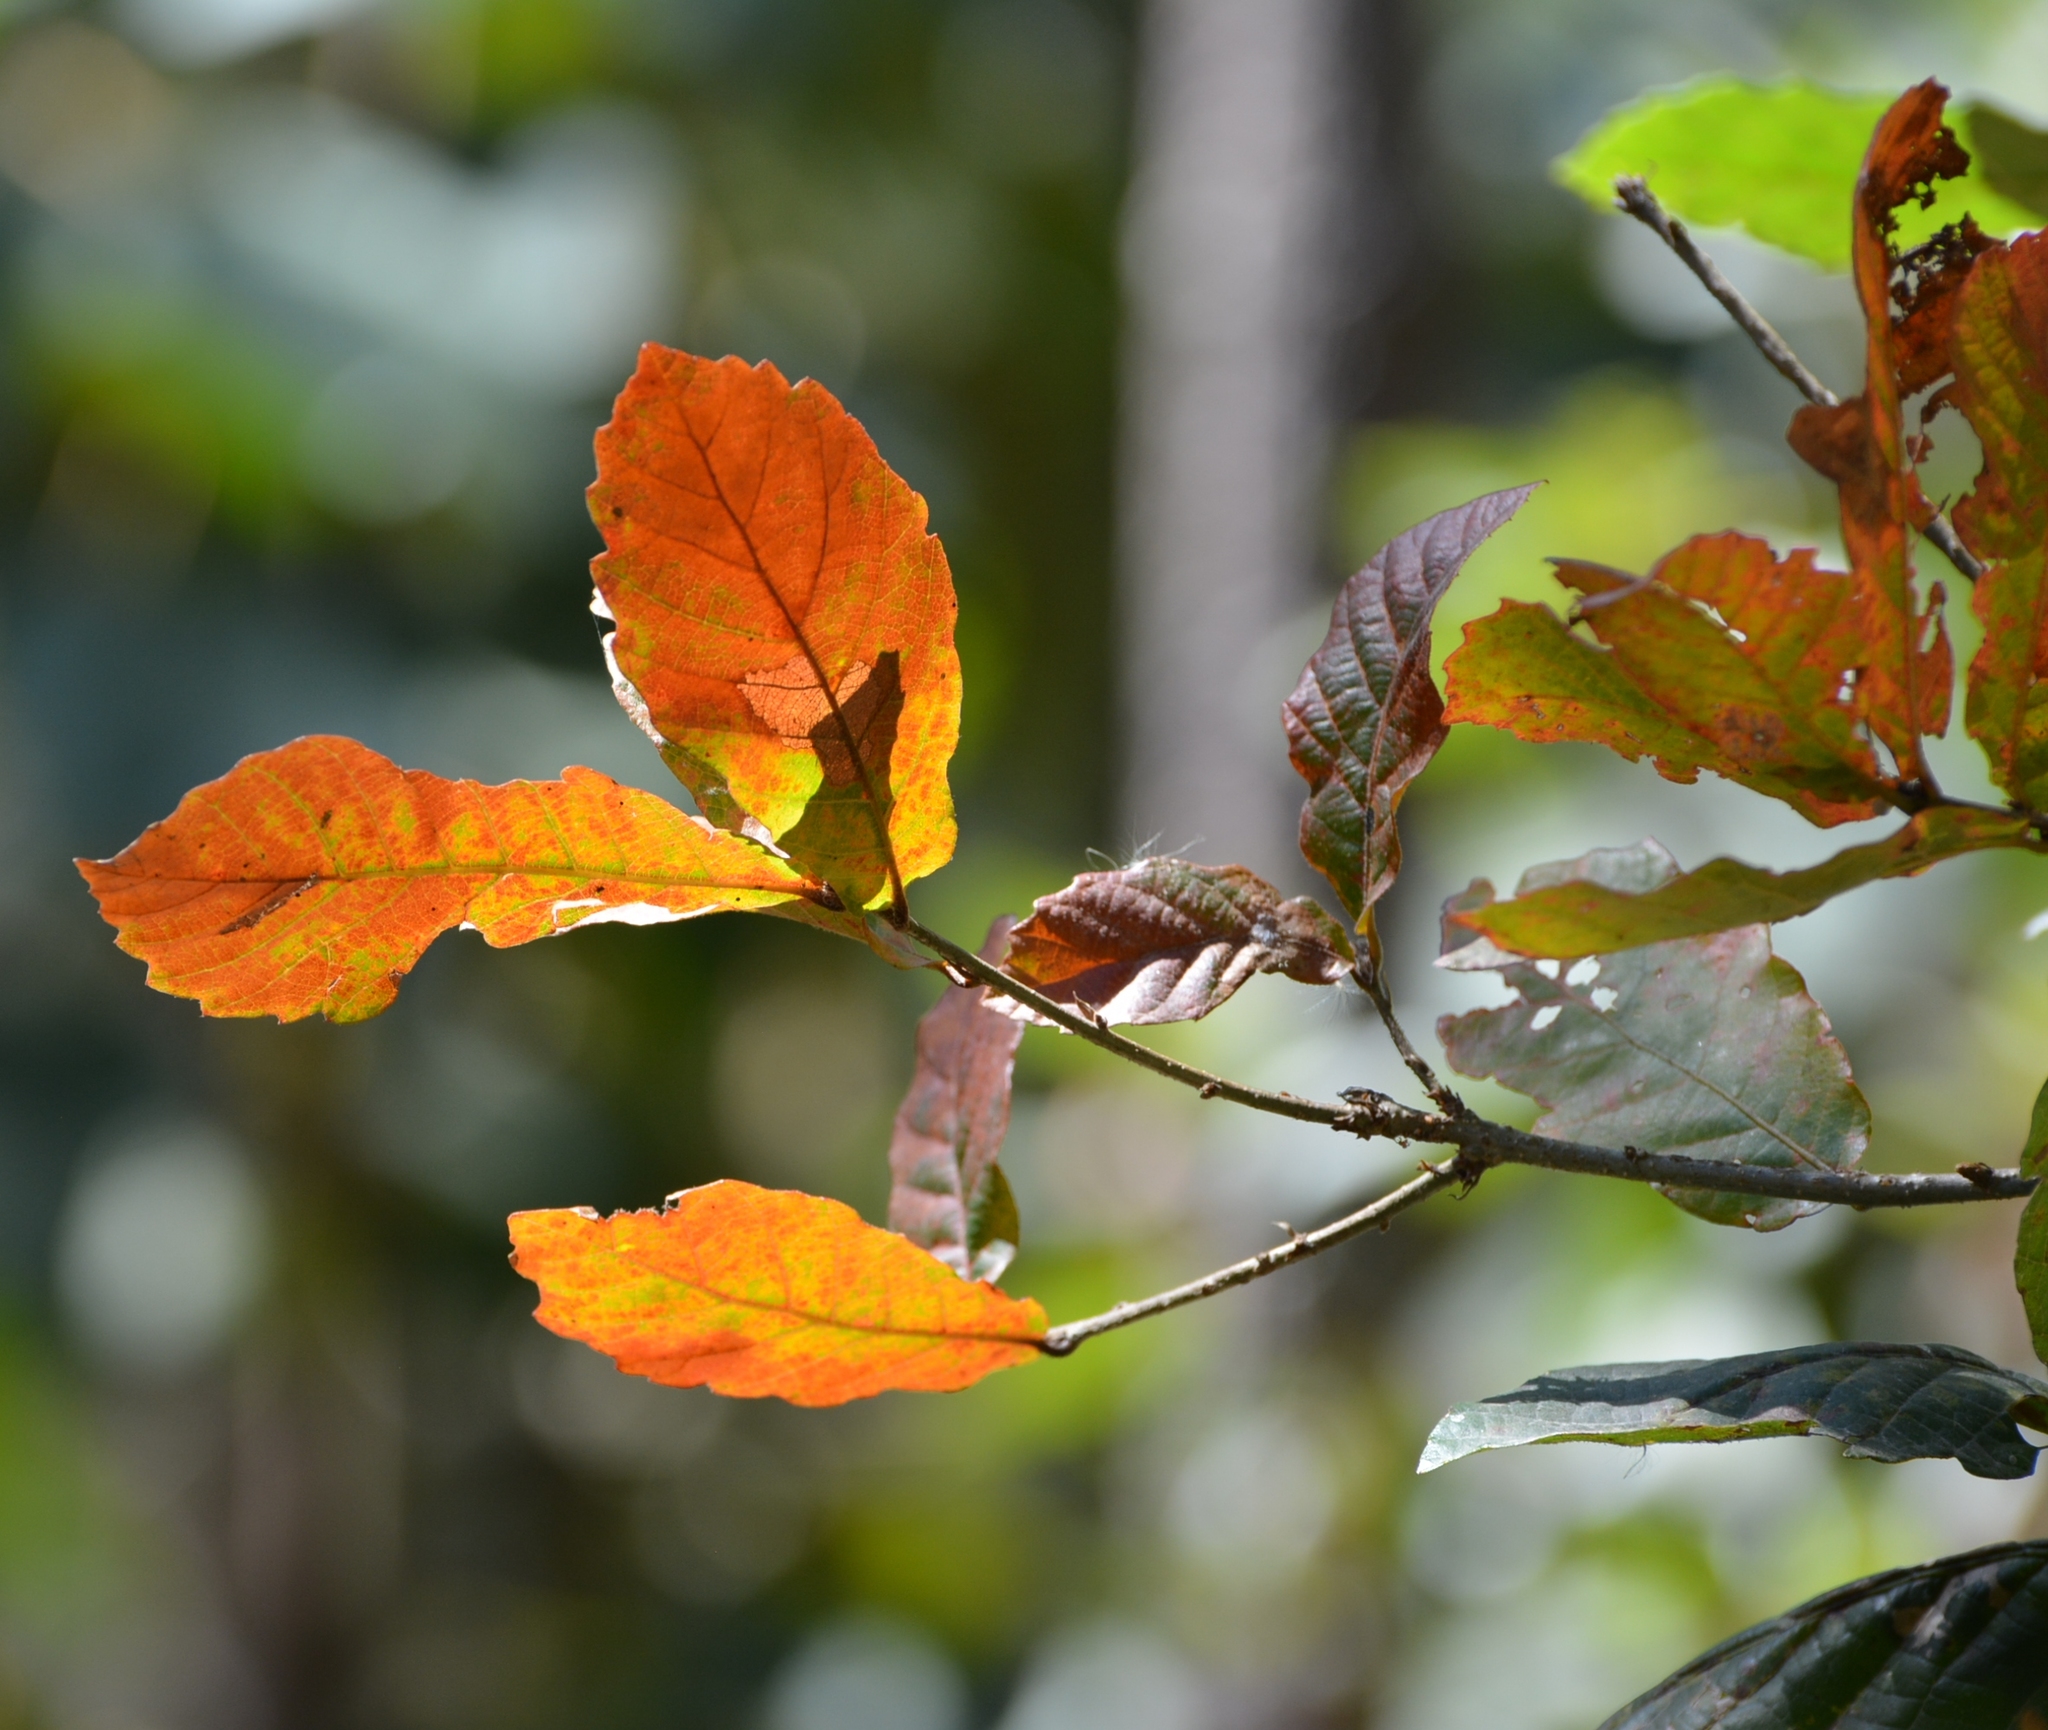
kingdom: Plantae
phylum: Tracheophyta
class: Magnoliopsida
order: Fagales
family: Fagaceae
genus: Quercus
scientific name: Quercus segoviensis
